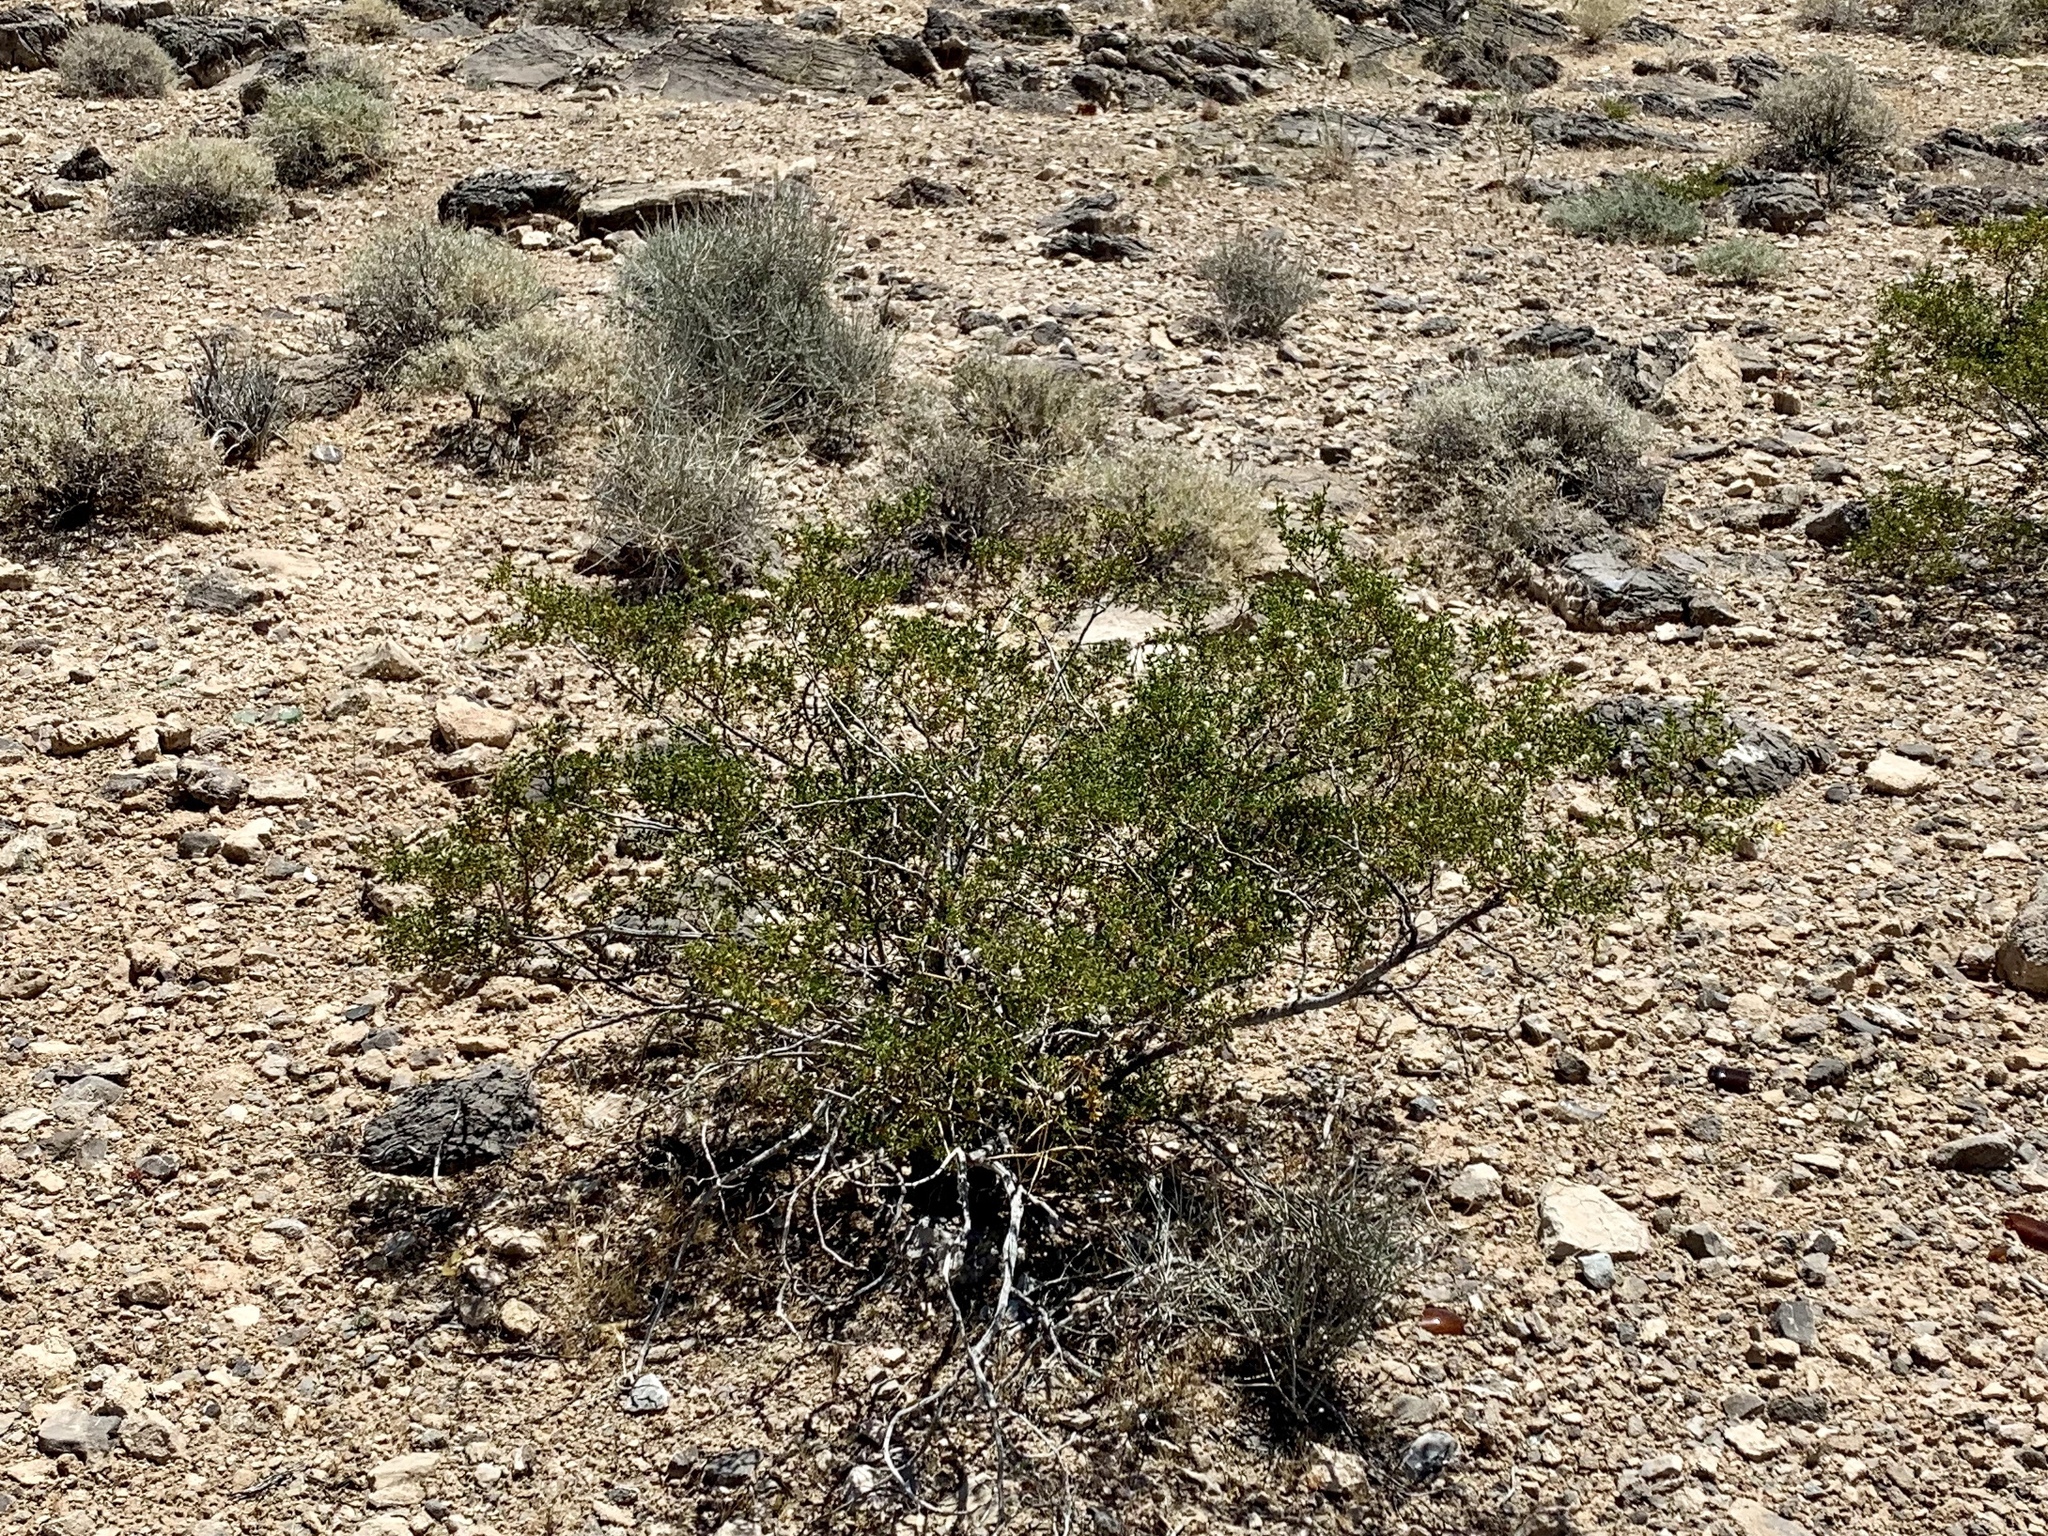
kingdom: Plantae
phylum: Tracheophyta
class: Magnoliopsida
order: Zygophyllales
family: Zygophyllaceae
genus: Larrea
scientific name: Larrea tridentata
